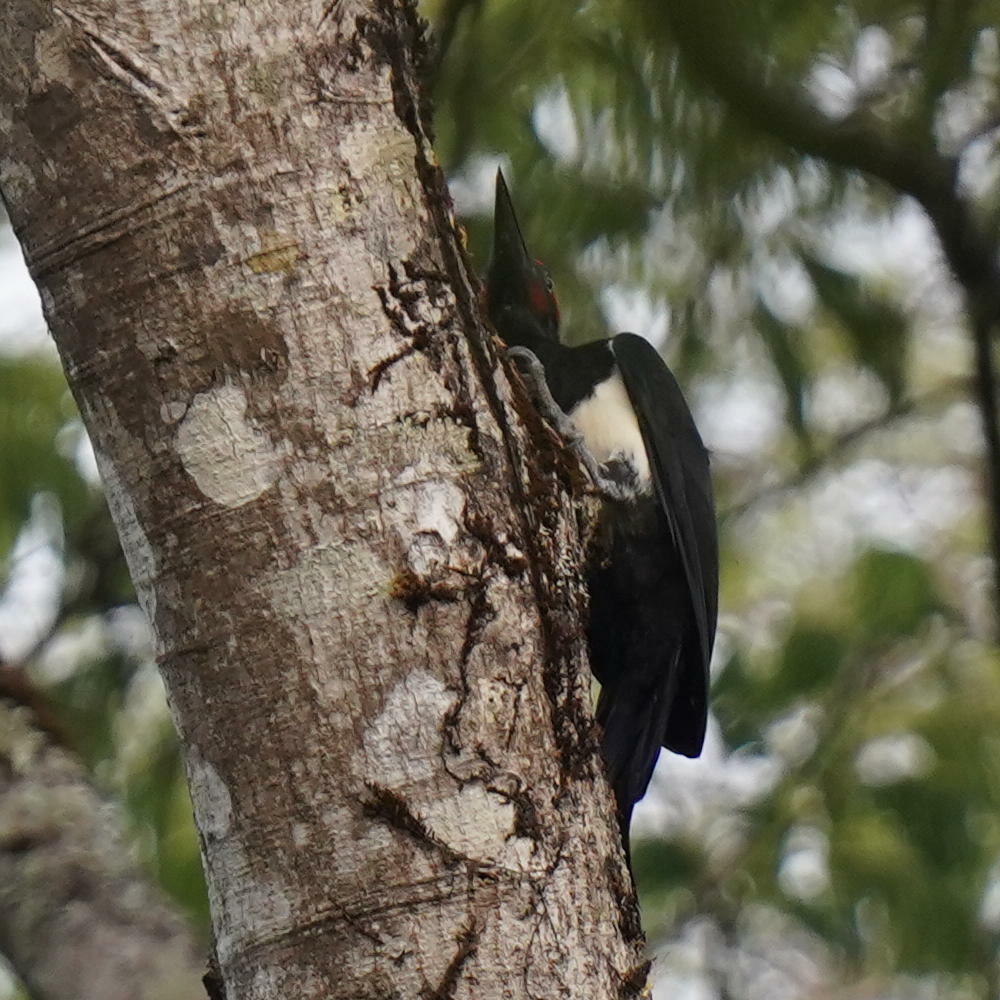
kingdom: Animalia
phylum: Chordata
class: Aves
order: Piciformes
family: Picidae
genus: Dryocopus
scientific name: Dryocopus javensis
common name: White-bellied woodpecker
